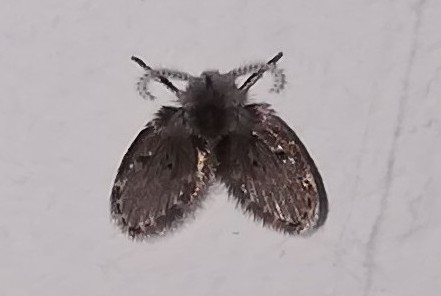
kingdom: Animalia
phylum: Arthropoda
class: Insecta
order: Diptera
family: Psychodidae
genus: Clogmia
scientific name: Clogmia albipunctatus
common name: White-spotted moth fly
